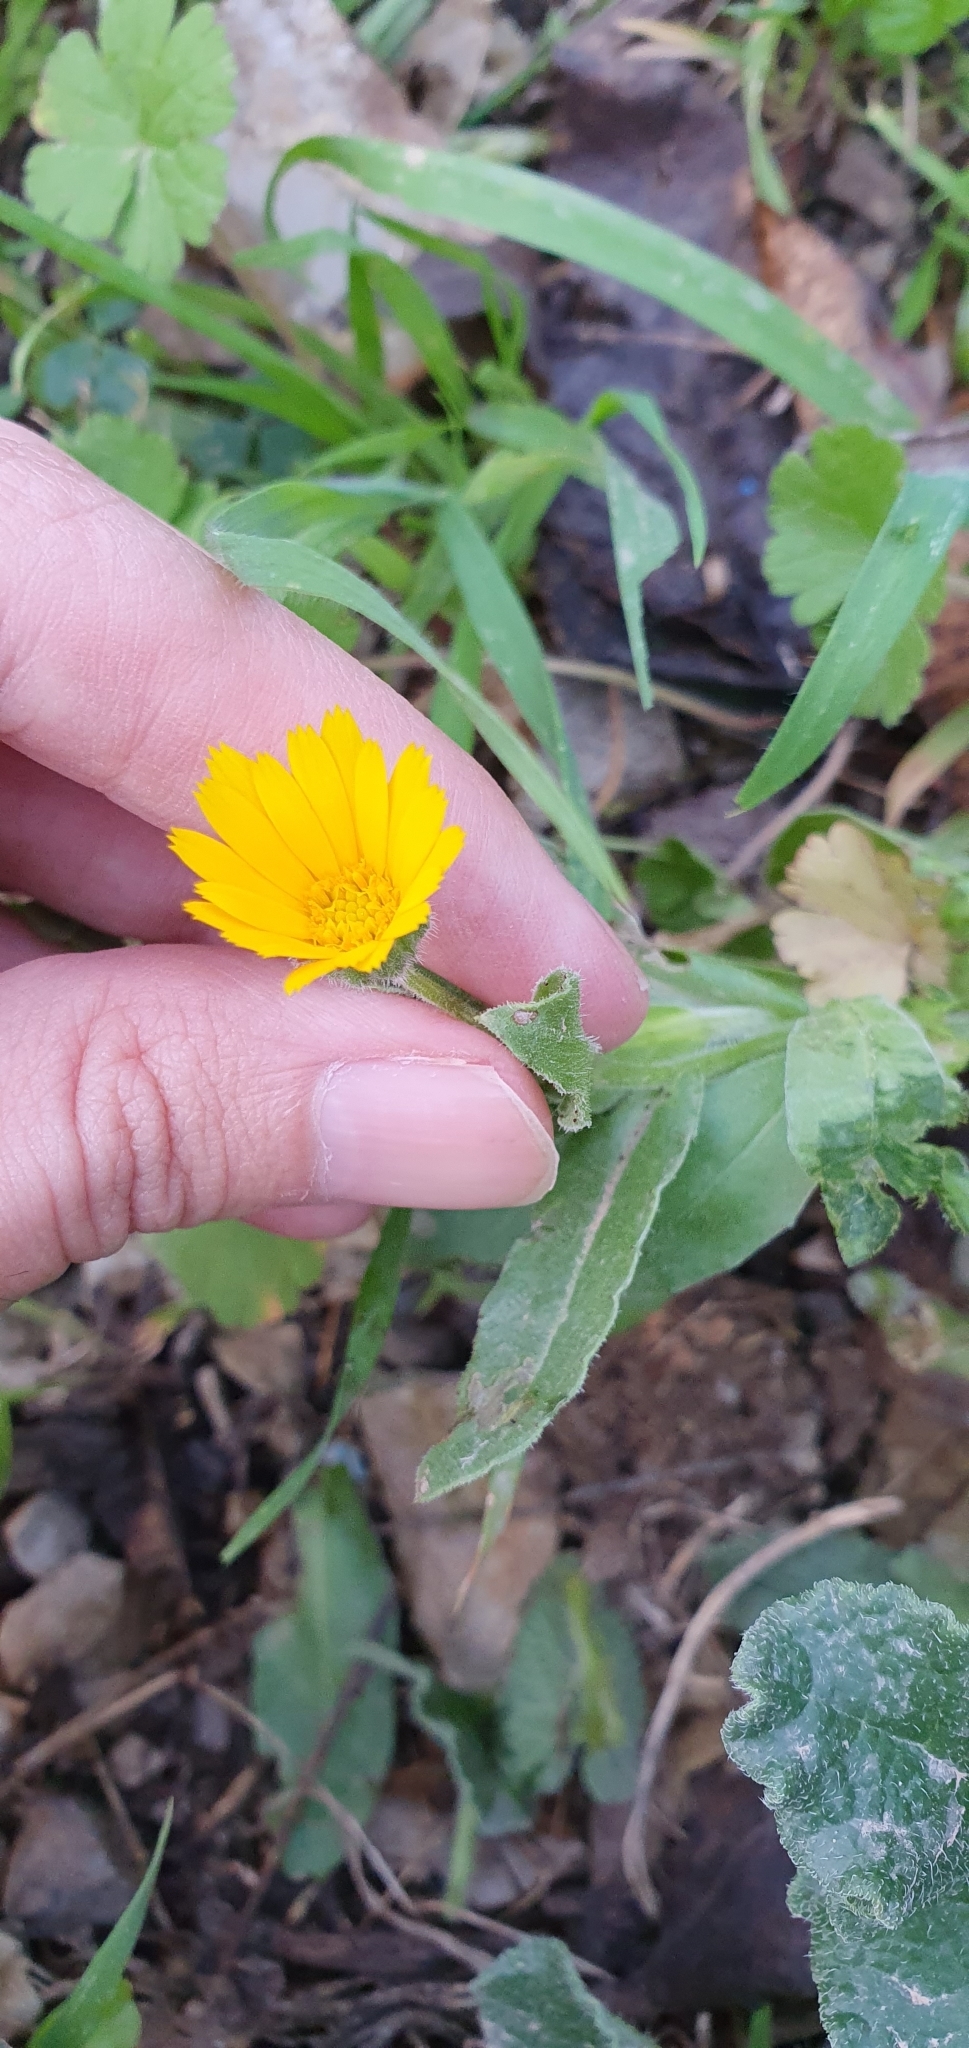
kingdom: Plantae
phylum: Tracheophyta
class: Magnoliopsida
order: Asterales
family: Asteraceae
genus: Calendula
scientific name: Calendula arvensis
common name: Field marigold
